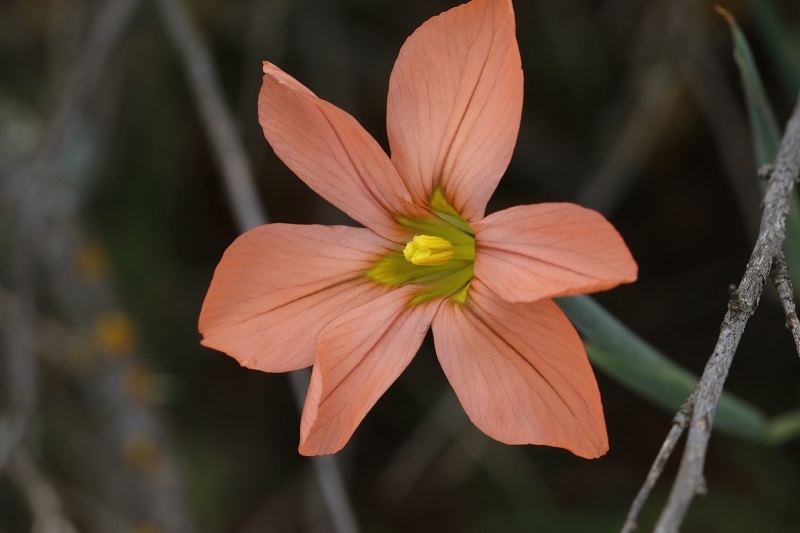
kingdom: Plantae
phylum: Tracheophyta
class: Liliopsida
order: Asparagales
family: Iridaceae
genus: Moraea
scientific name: Moraea flaccida
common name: One-leaf cape-tulip
